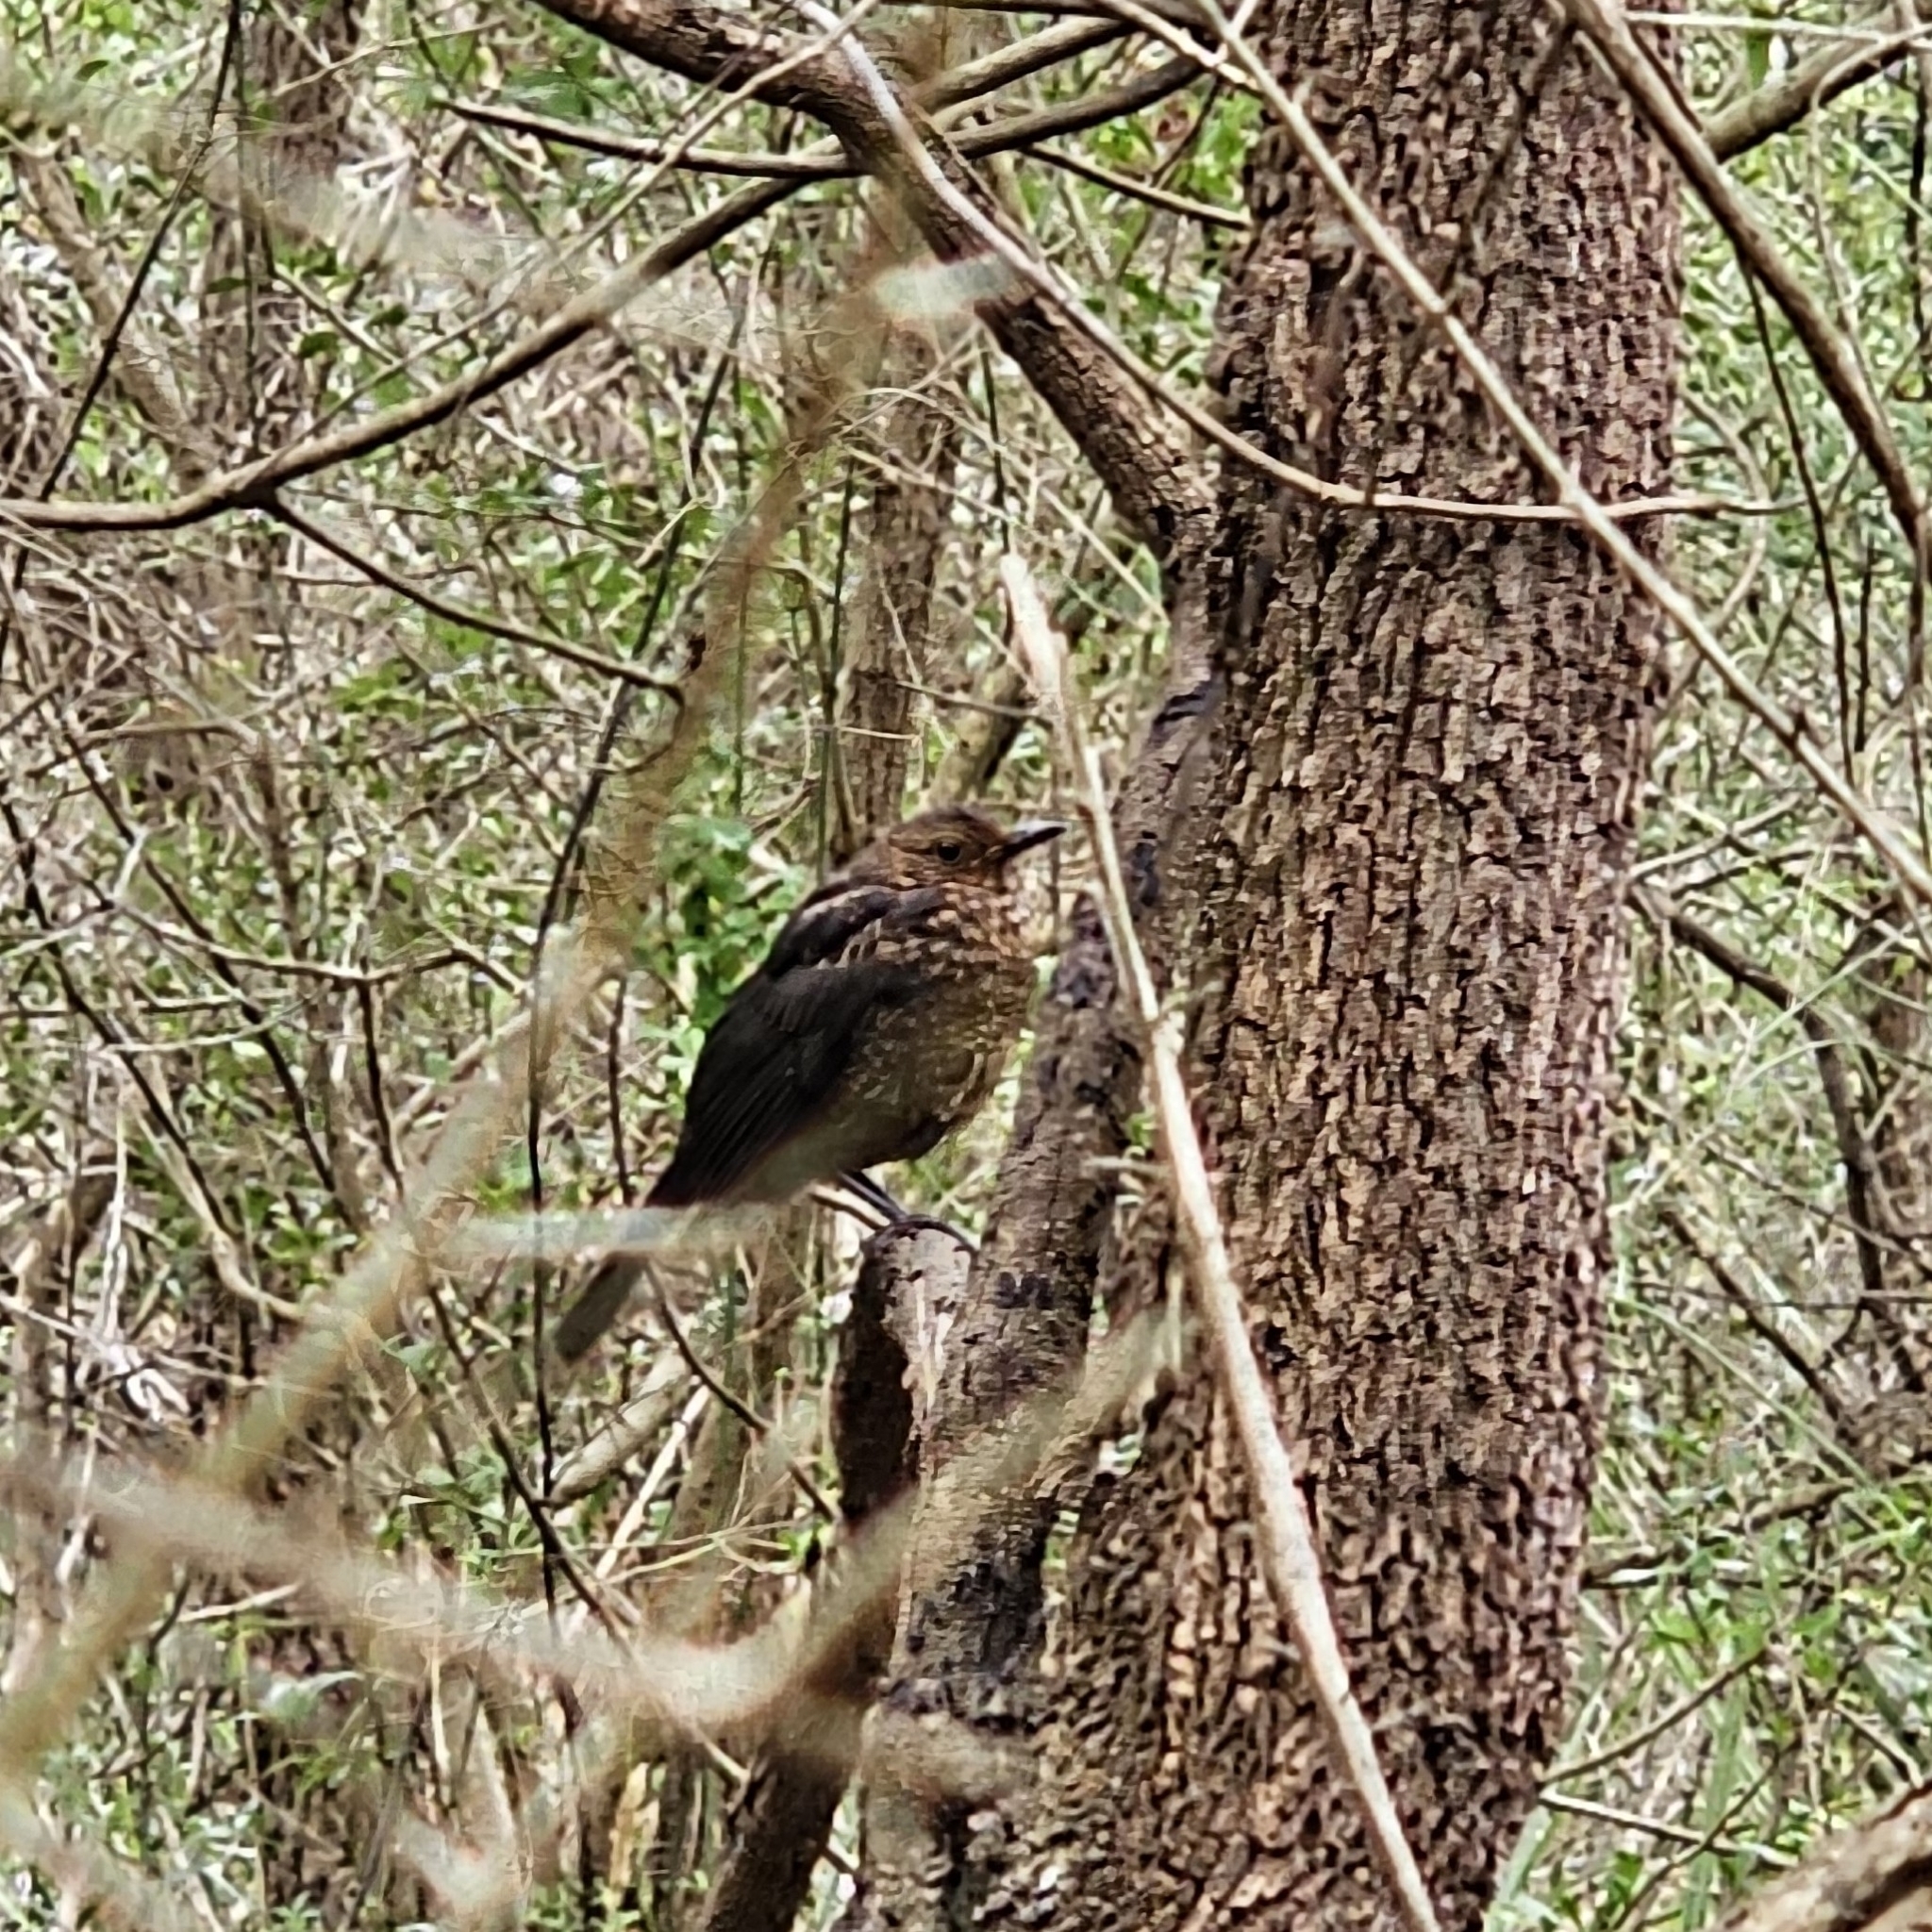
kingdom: Animalia
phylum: Chordata
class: Aves
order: Passeriformes
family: Turdidae
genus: Turdus
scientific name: Turdus merula
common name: Common blackbird
